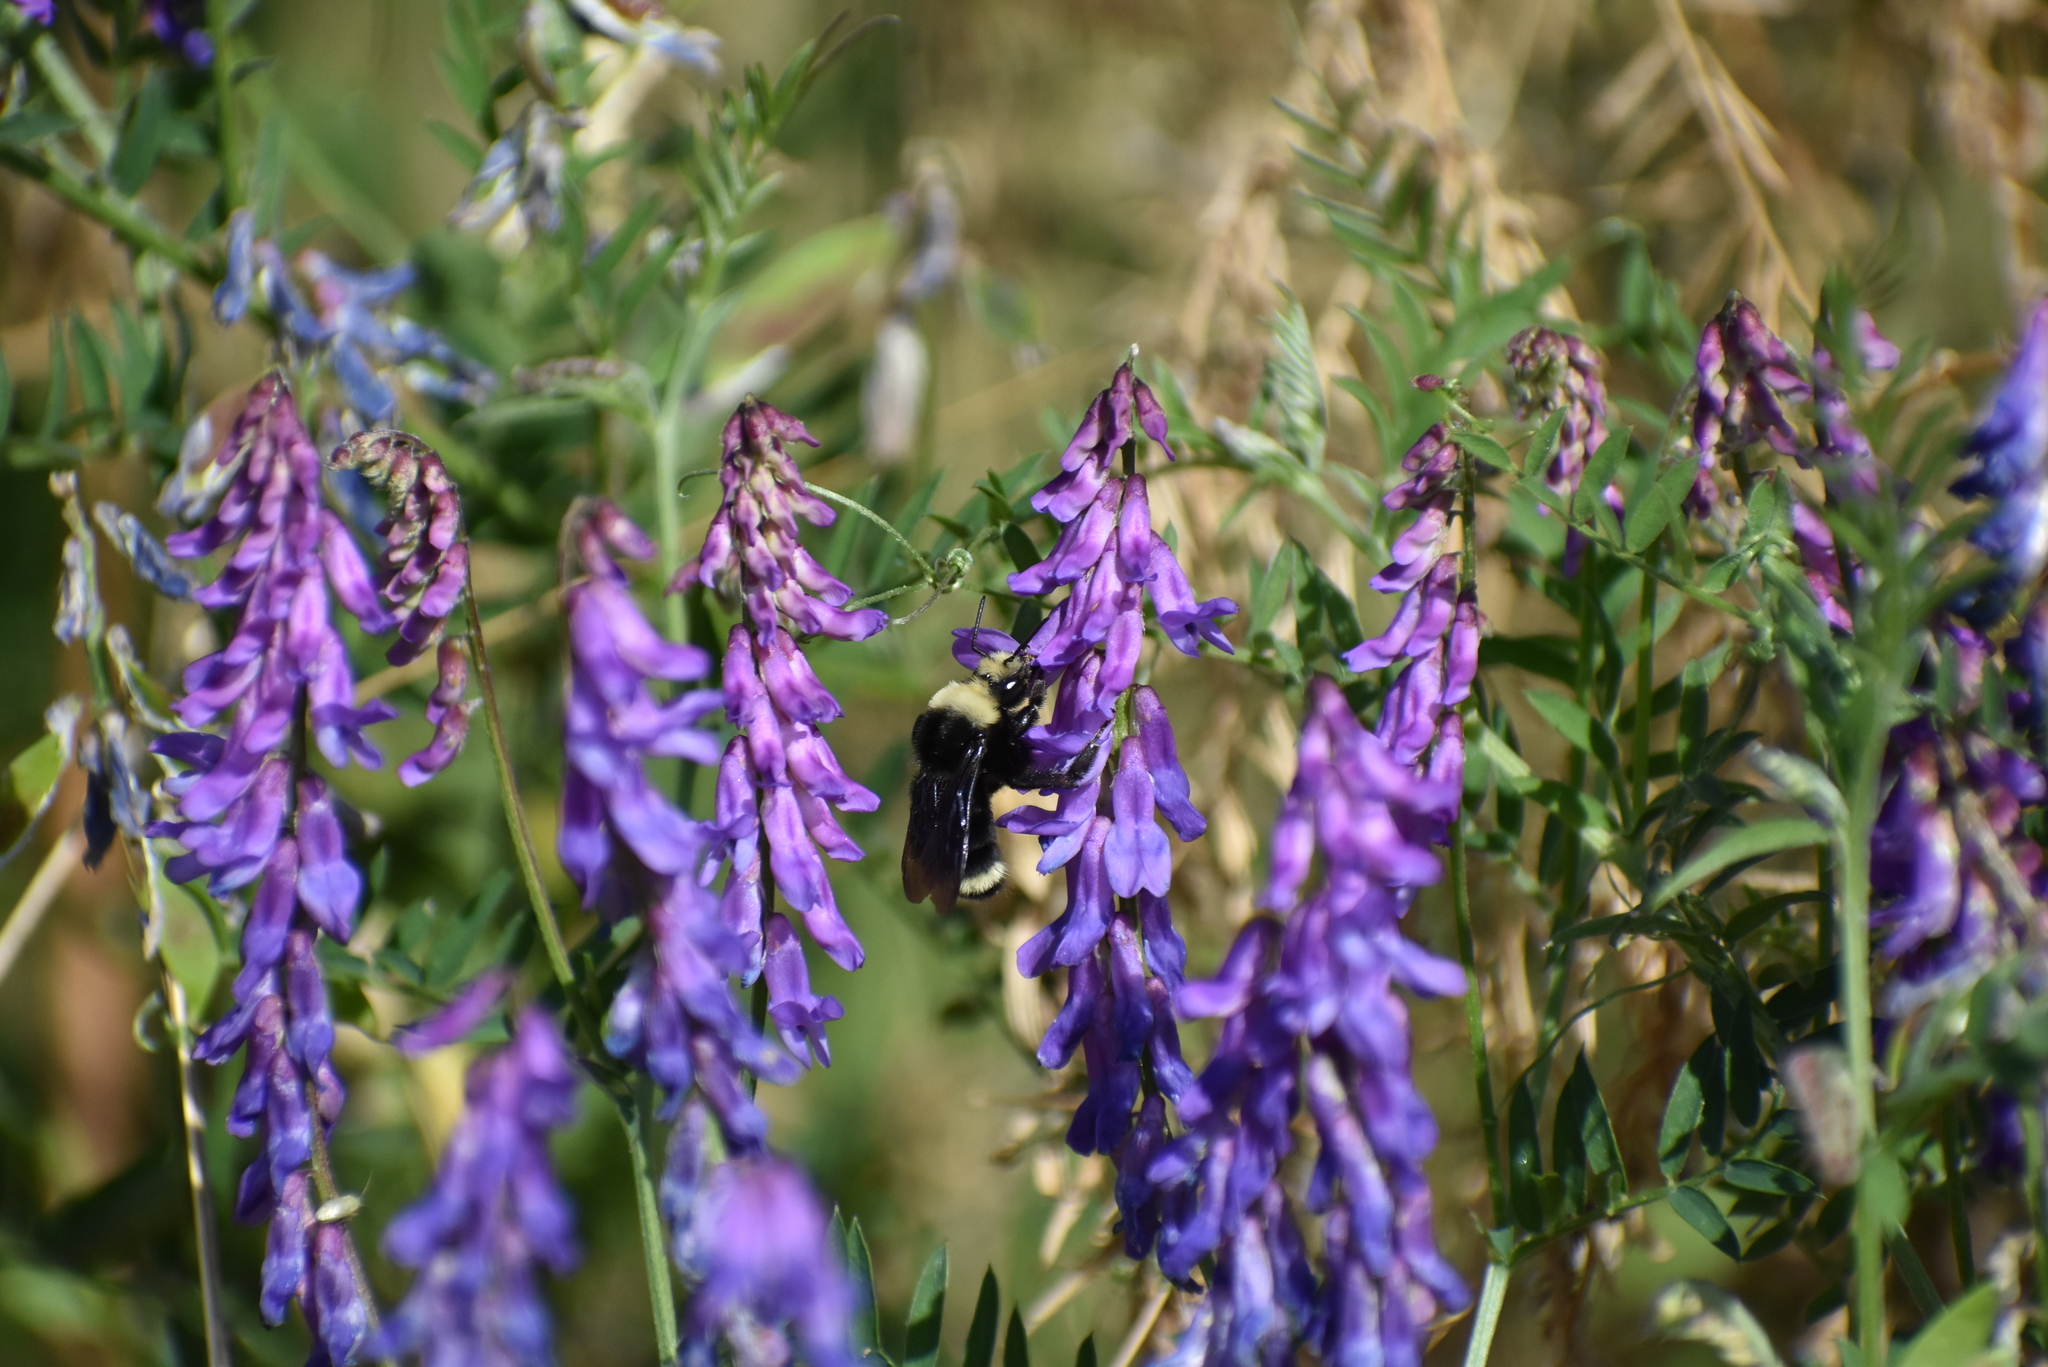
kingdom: Animalia
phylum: Arthropoda
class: Insecta
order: Hymenoptera
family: Apidae
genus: Bombus
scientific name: Bombus vosnesenskii
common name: Vosnesensky bumble bee
